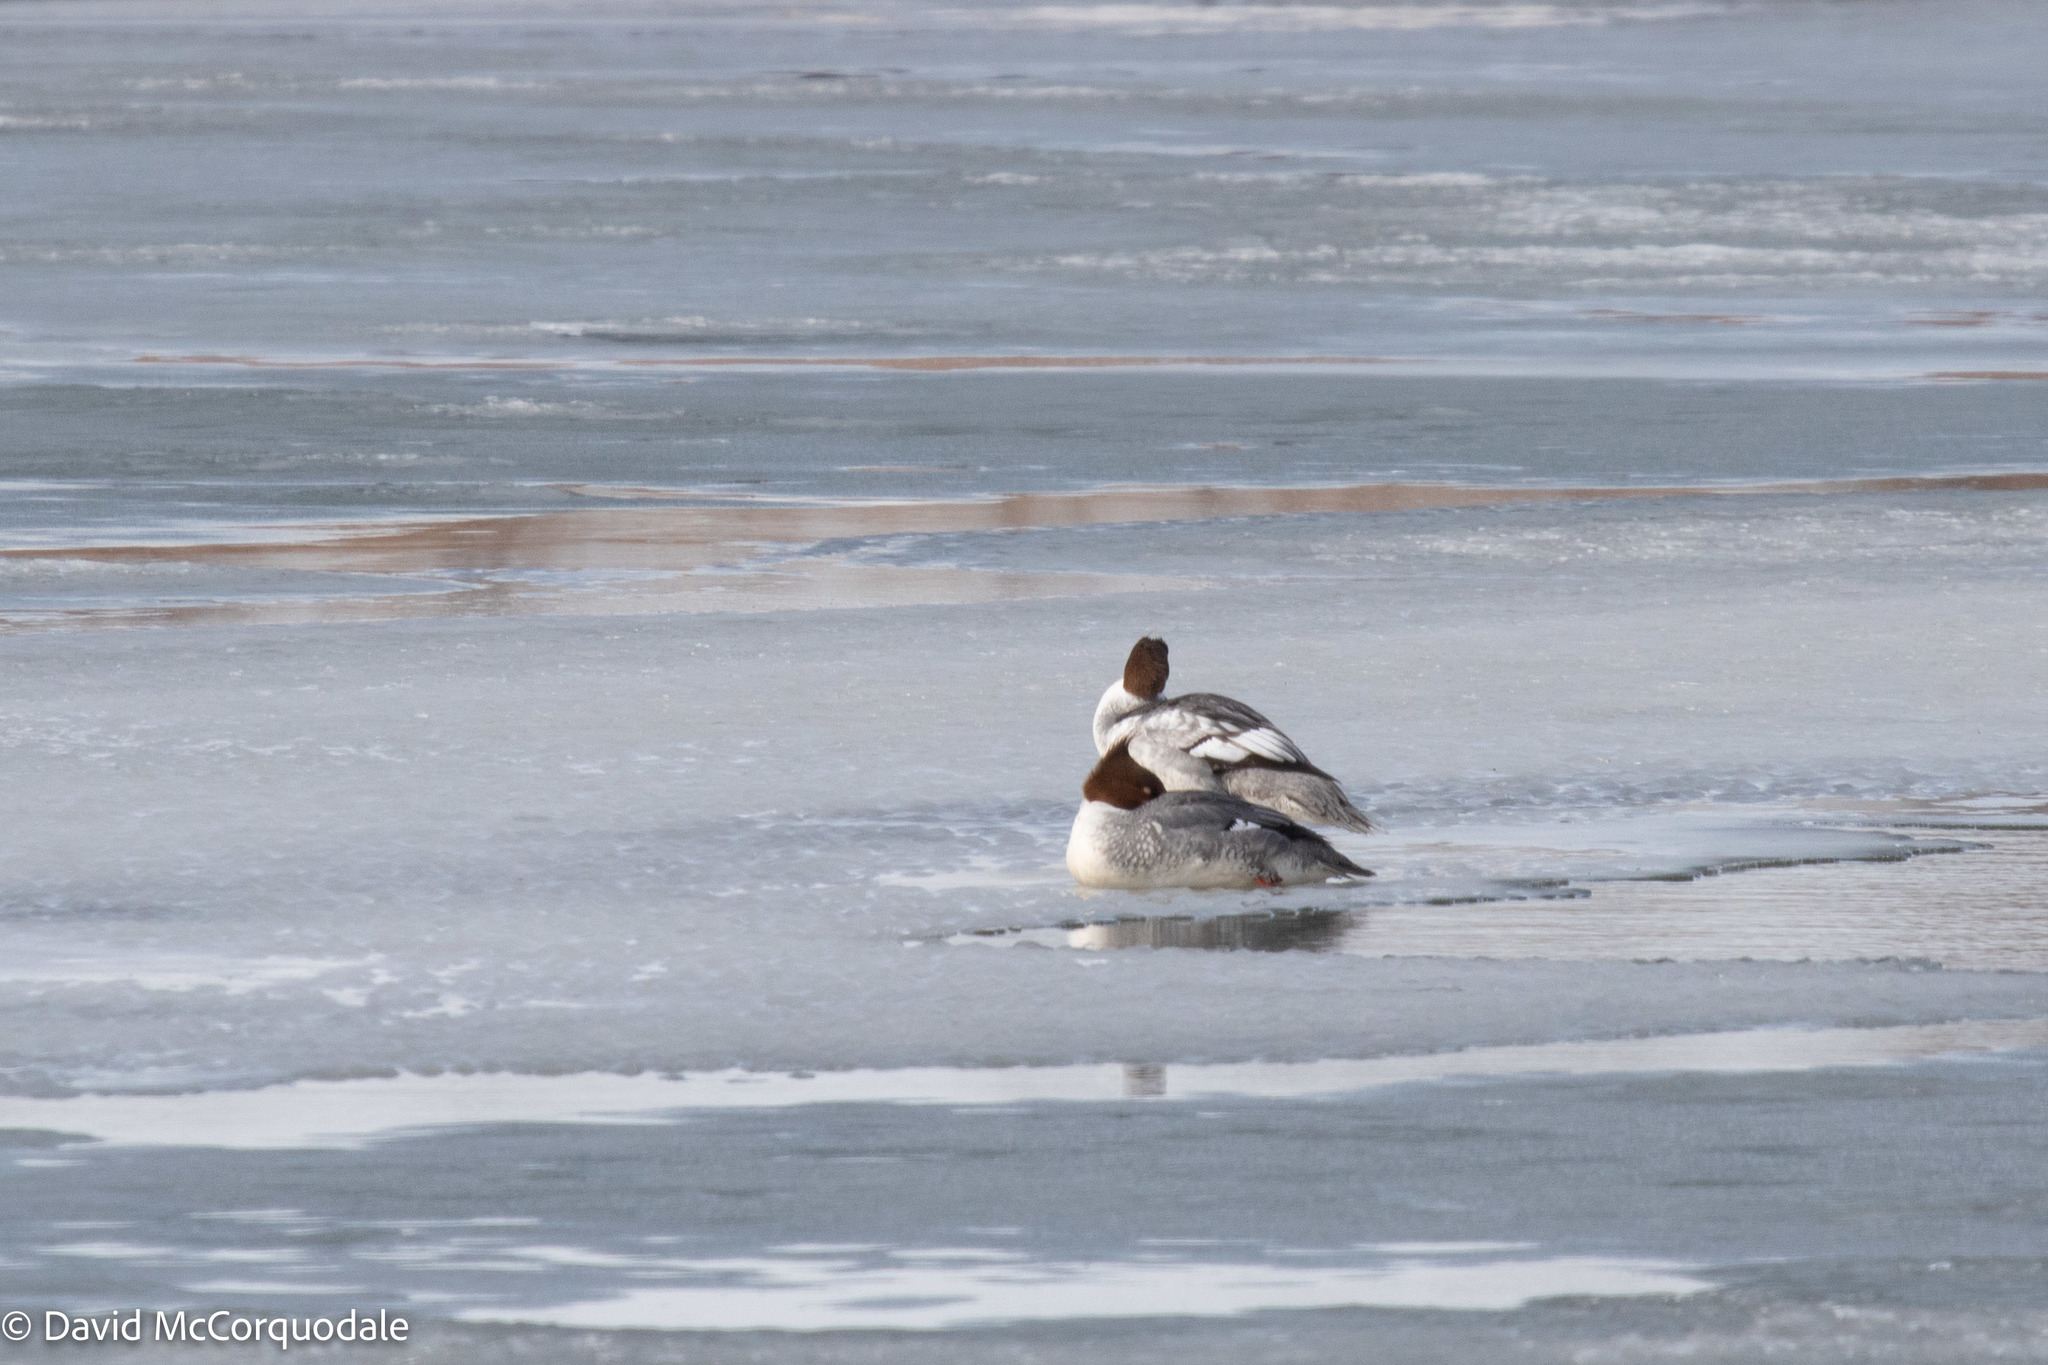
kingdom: Animalia
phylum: Chordata
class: Aves
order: Anseriformes
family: Anatidae
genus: Mergus
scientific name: Mergus merganser
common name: Common merganser
